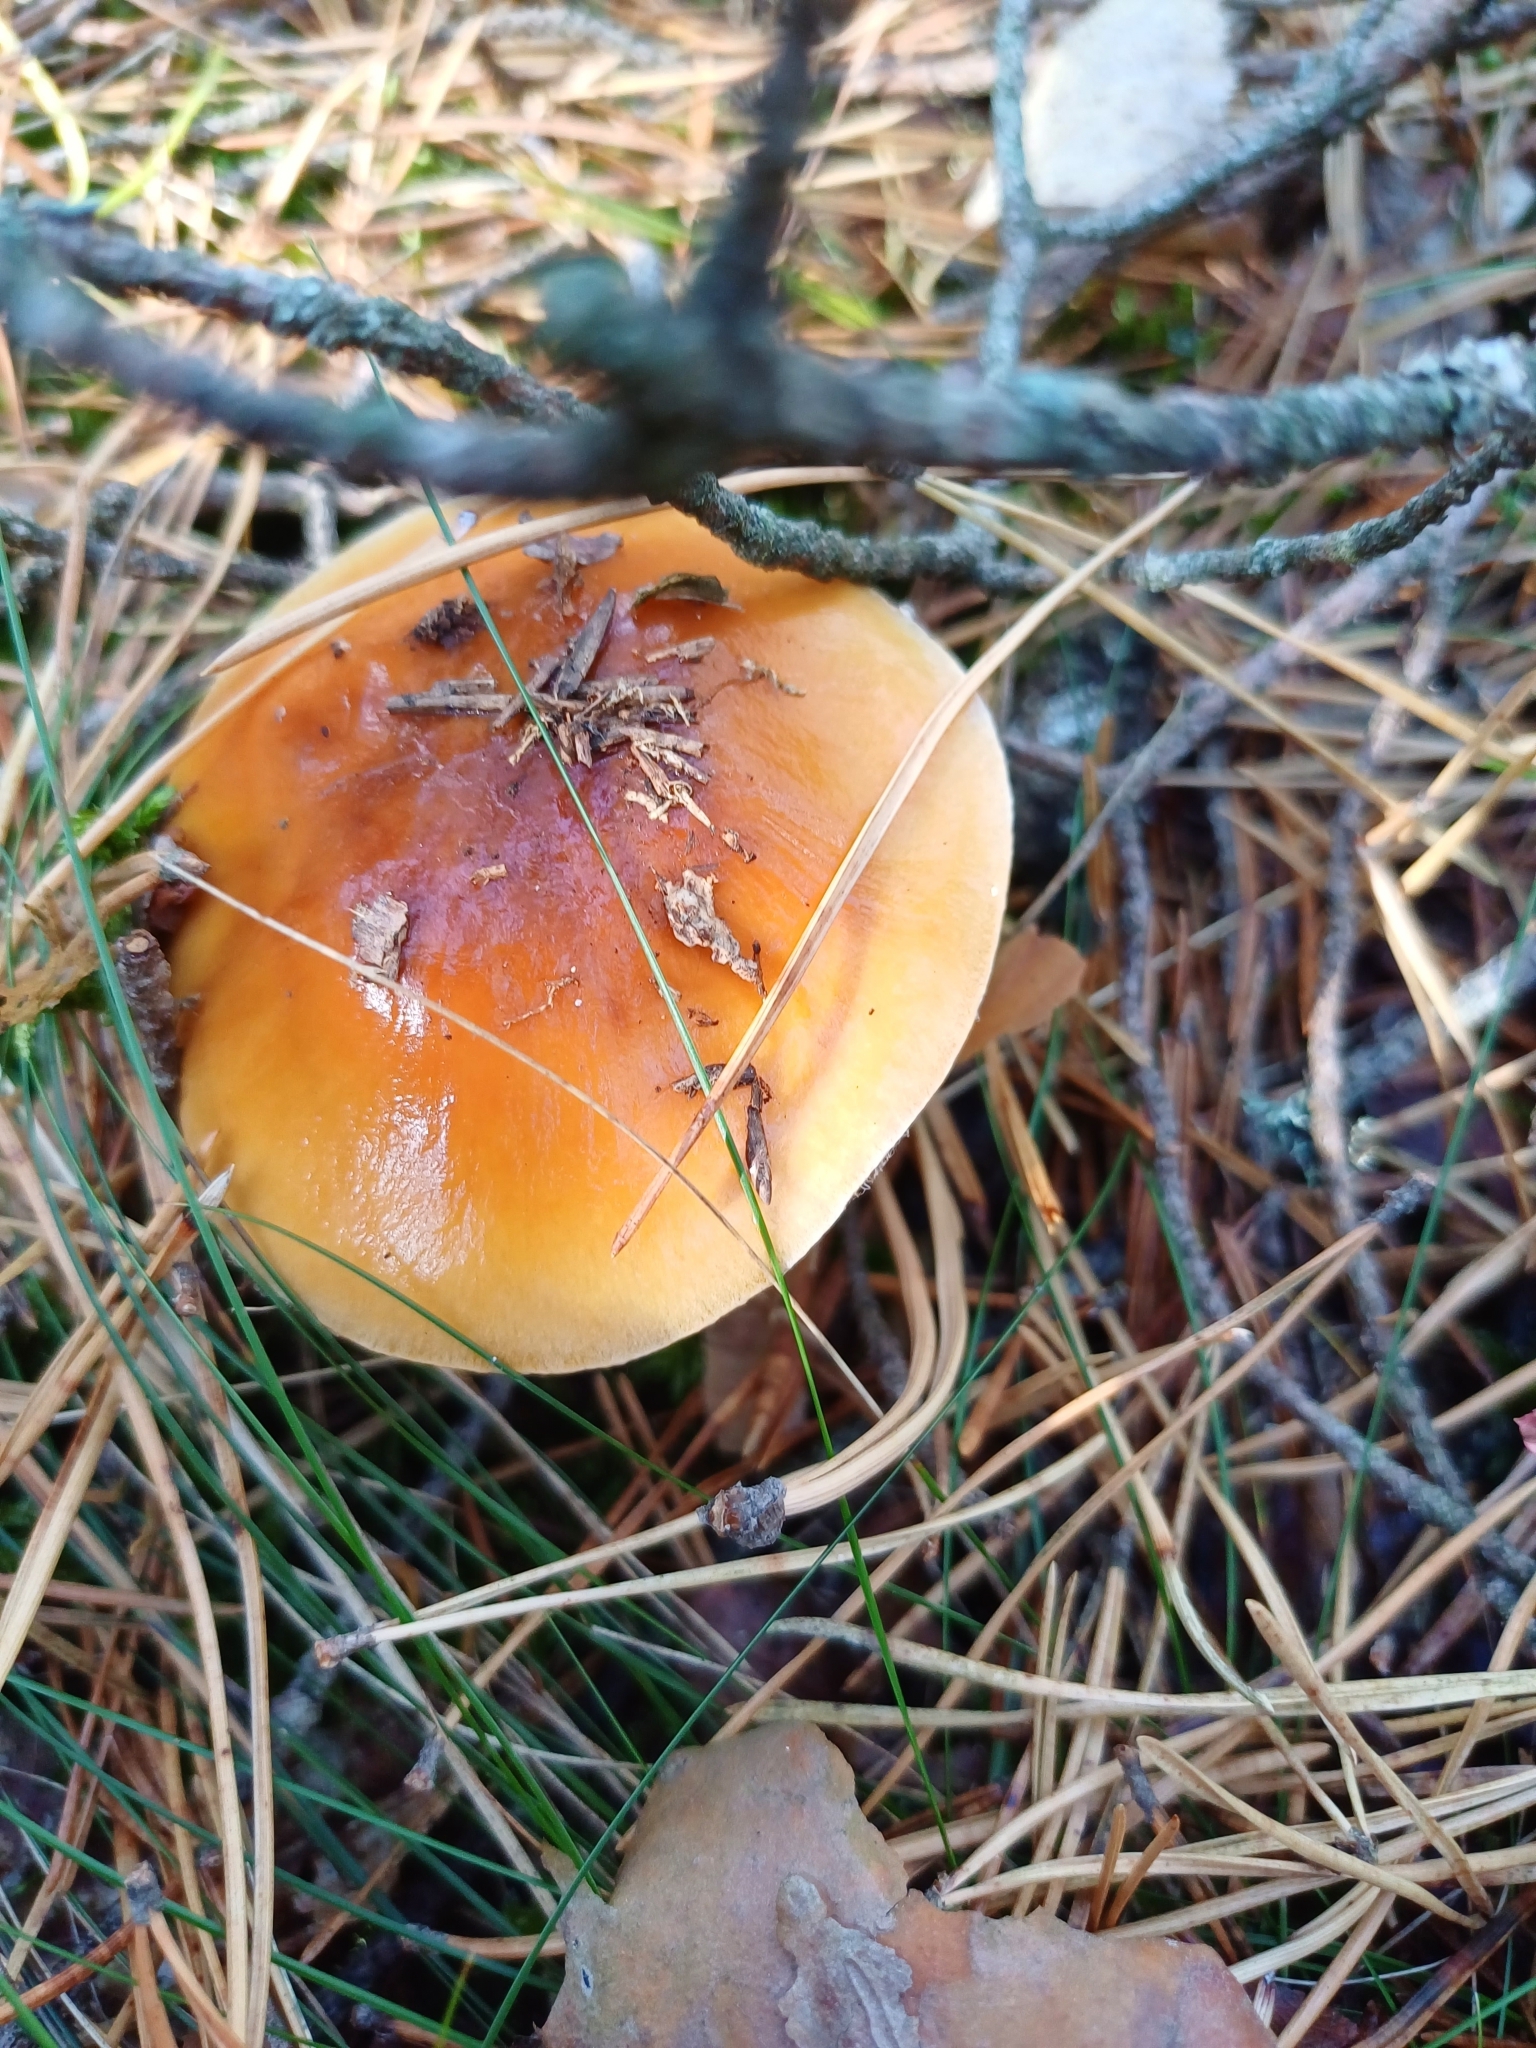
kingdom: Fungi
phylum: Basidiomycota
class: Agaricomycetes
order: Agaricales
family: Cortinariaceae
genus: Cortinarius
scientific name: Cortinarius mucosus
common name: Orange webcap
